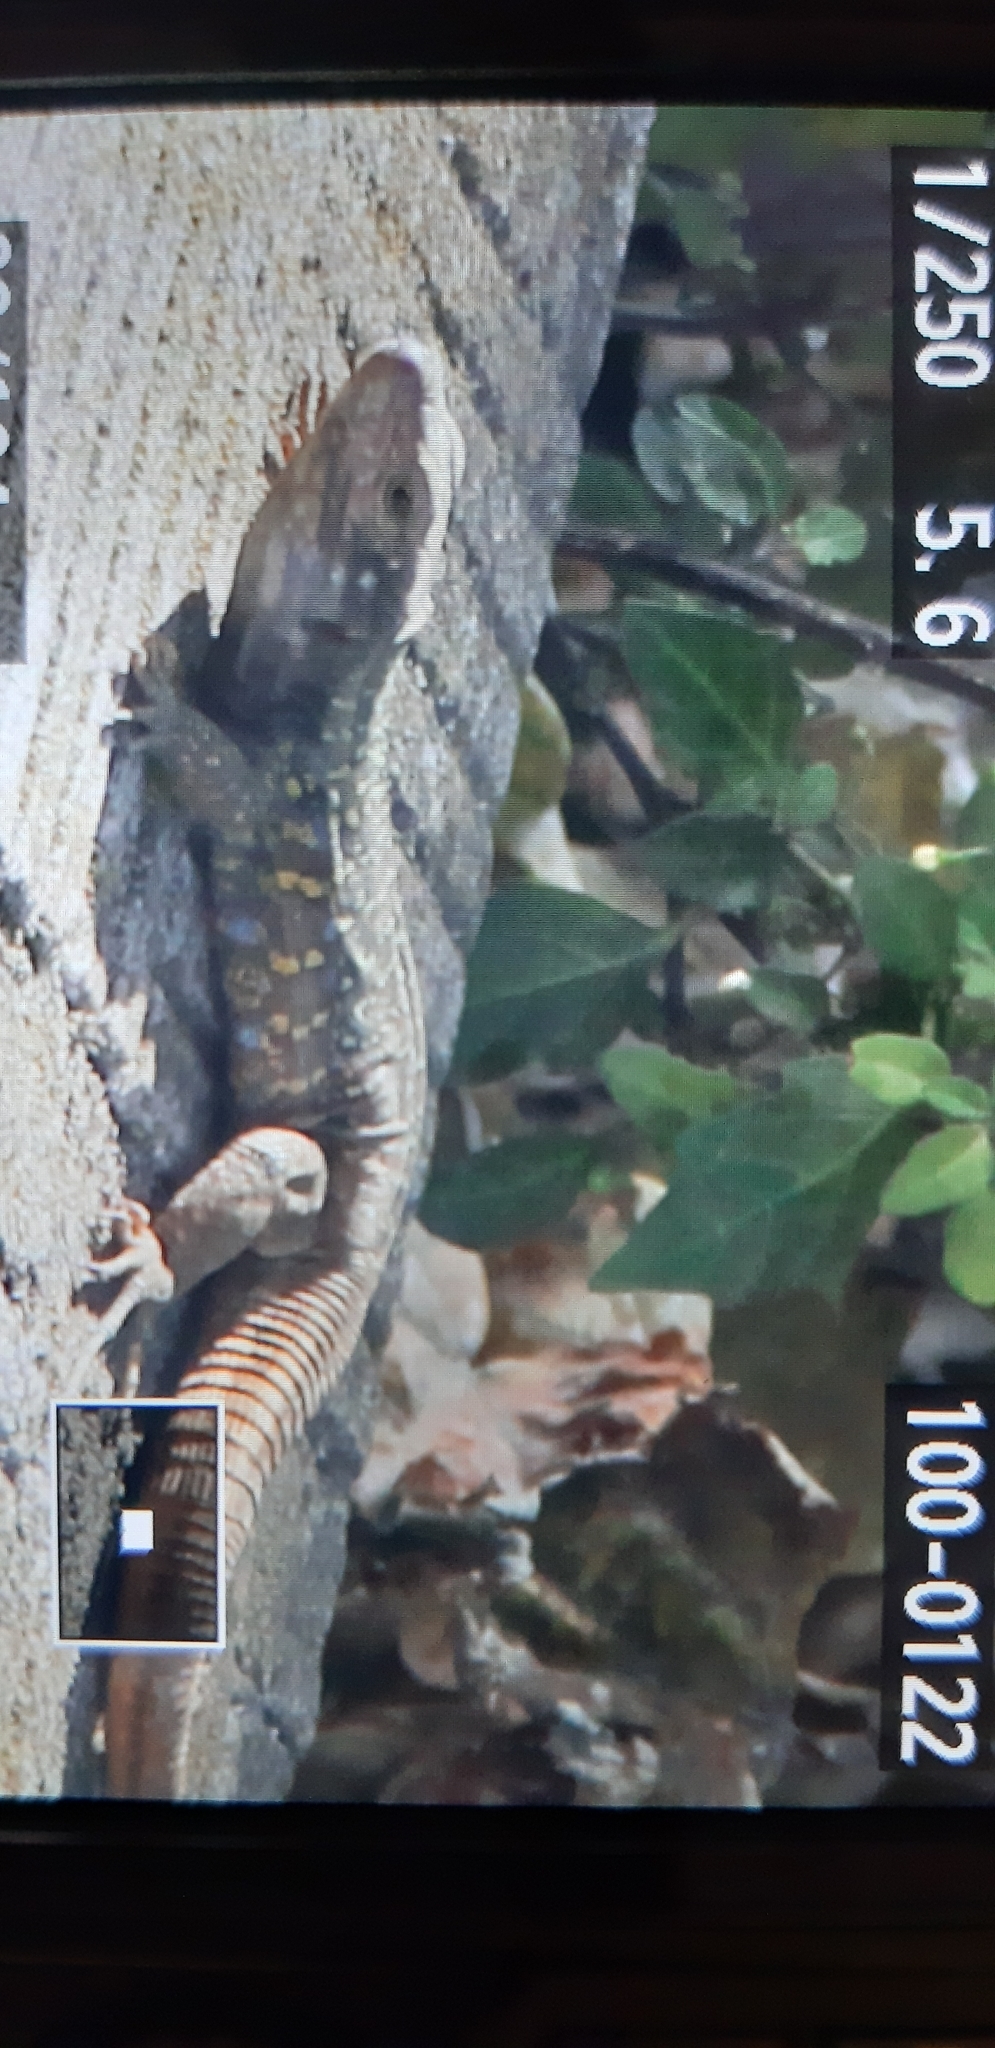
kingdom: Animalia
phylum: Chordata
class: Squamata
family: Lacertidae
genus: Gallotia
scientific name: Gallotia galloti
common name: Gallot's lizard
